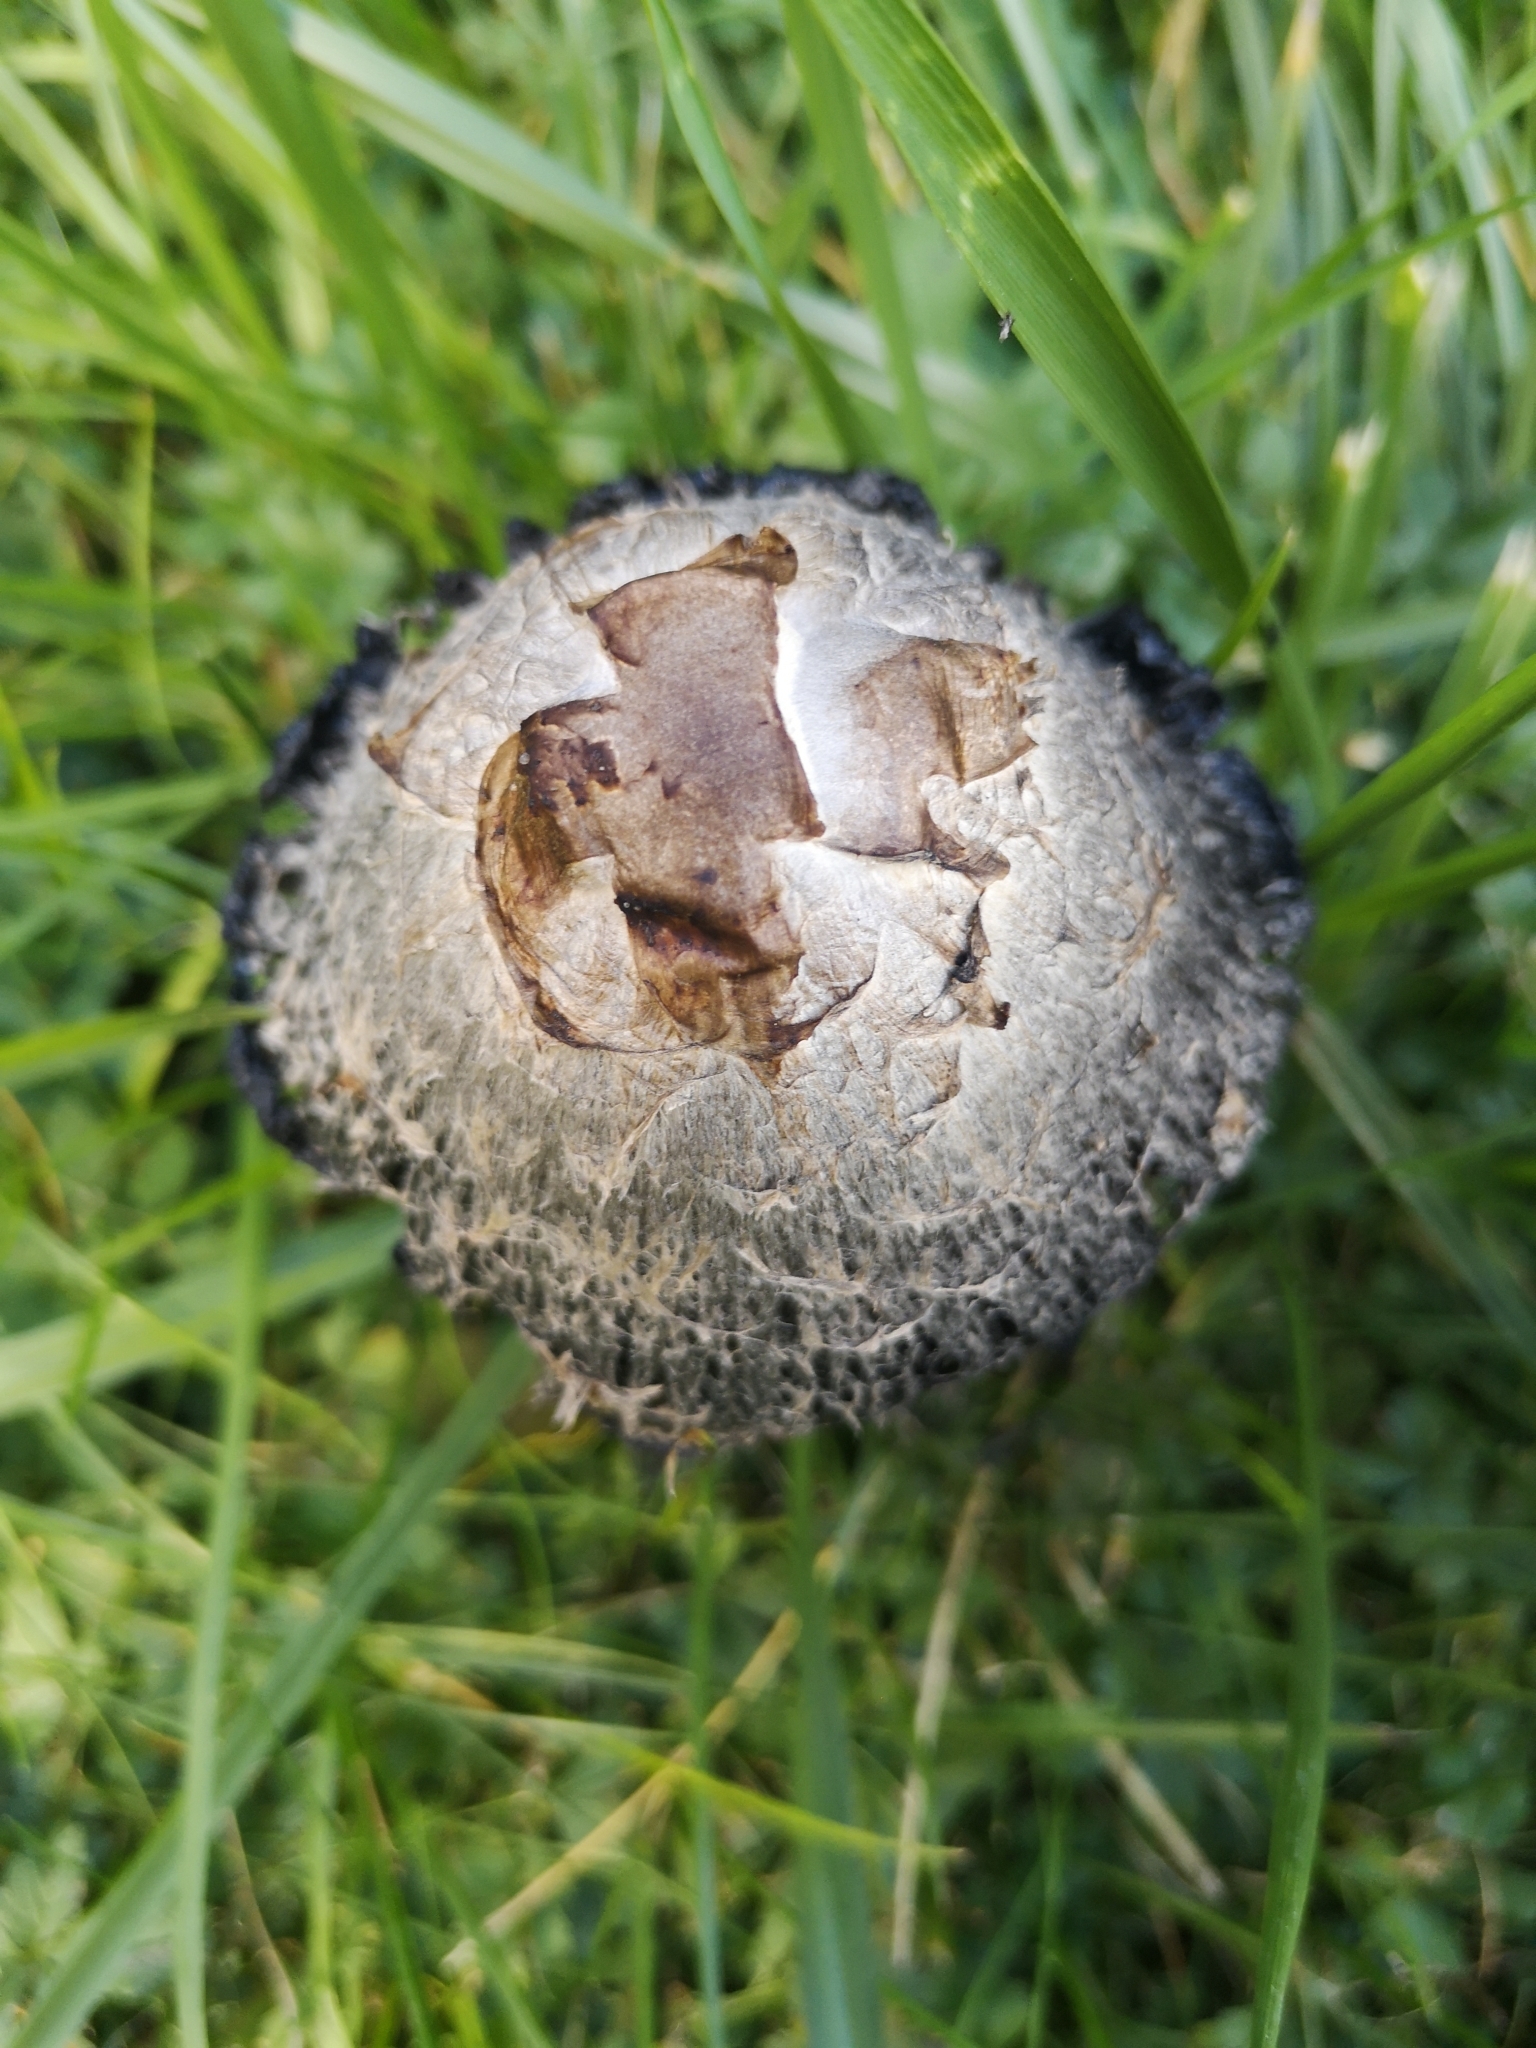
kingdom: Fungi
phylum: Basidiomycota
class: Agaricomycetes
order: Agaricales
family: Agaricaceae
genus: Coprinus
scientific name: Coprinus comatus
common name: Lawyer's wig
